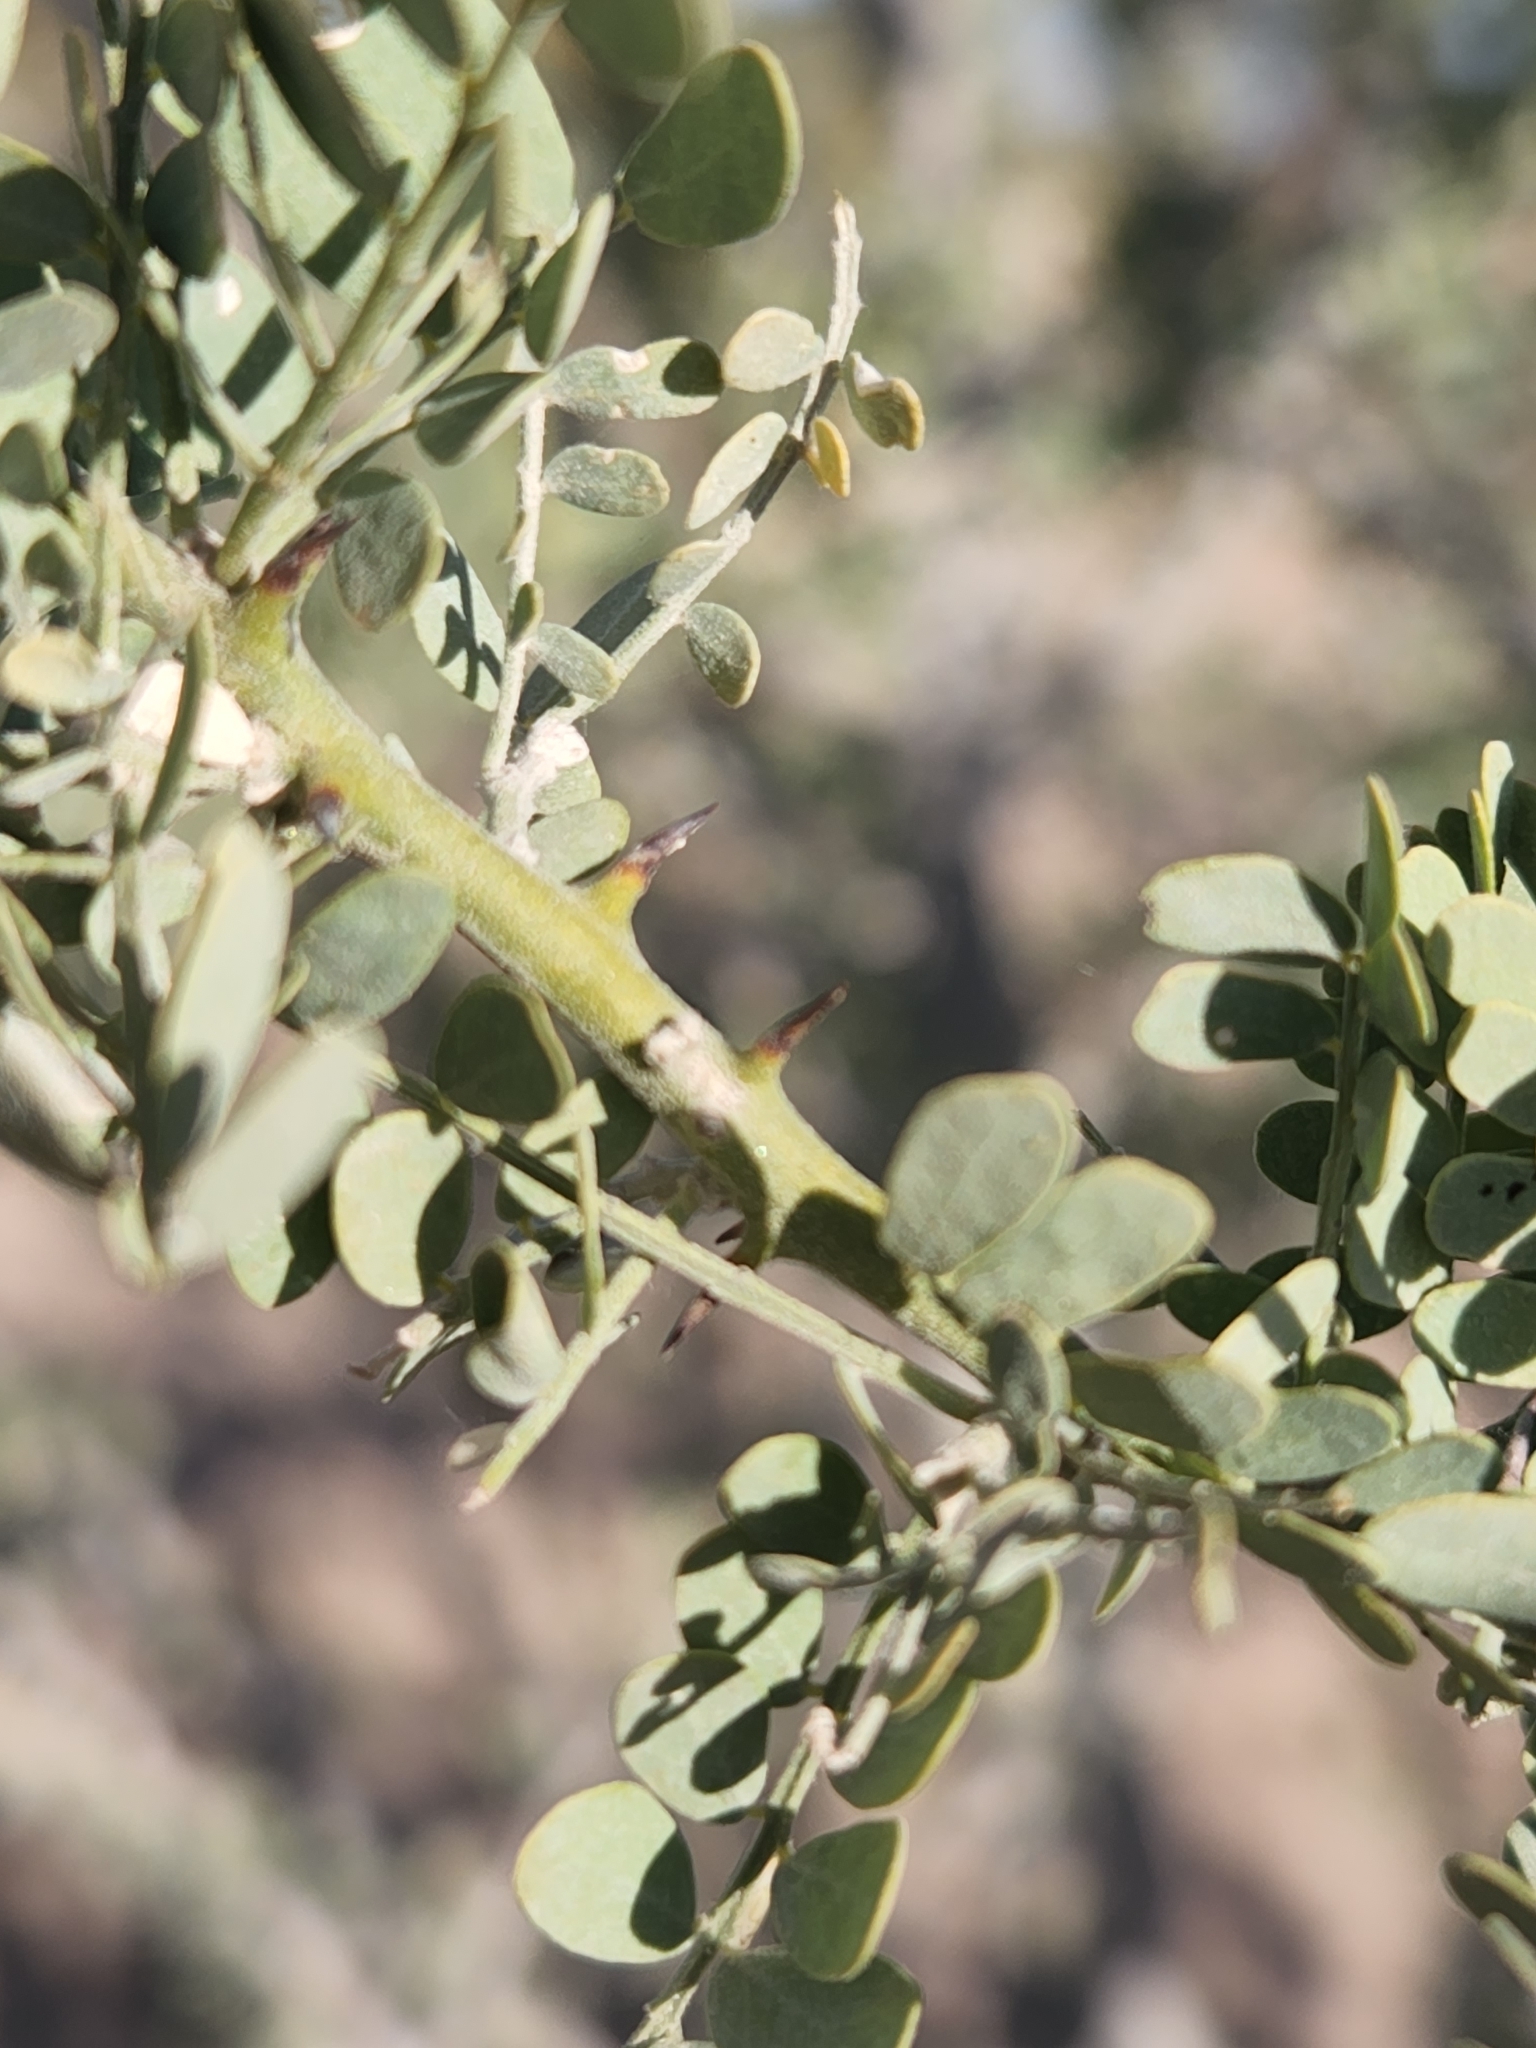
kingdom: Plantae
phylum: Tracheophyta
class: Magnoliopsida
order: Fabales
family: Fabaceae
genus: Olneya
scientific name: Olneya tesota
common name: Desert ironwood
